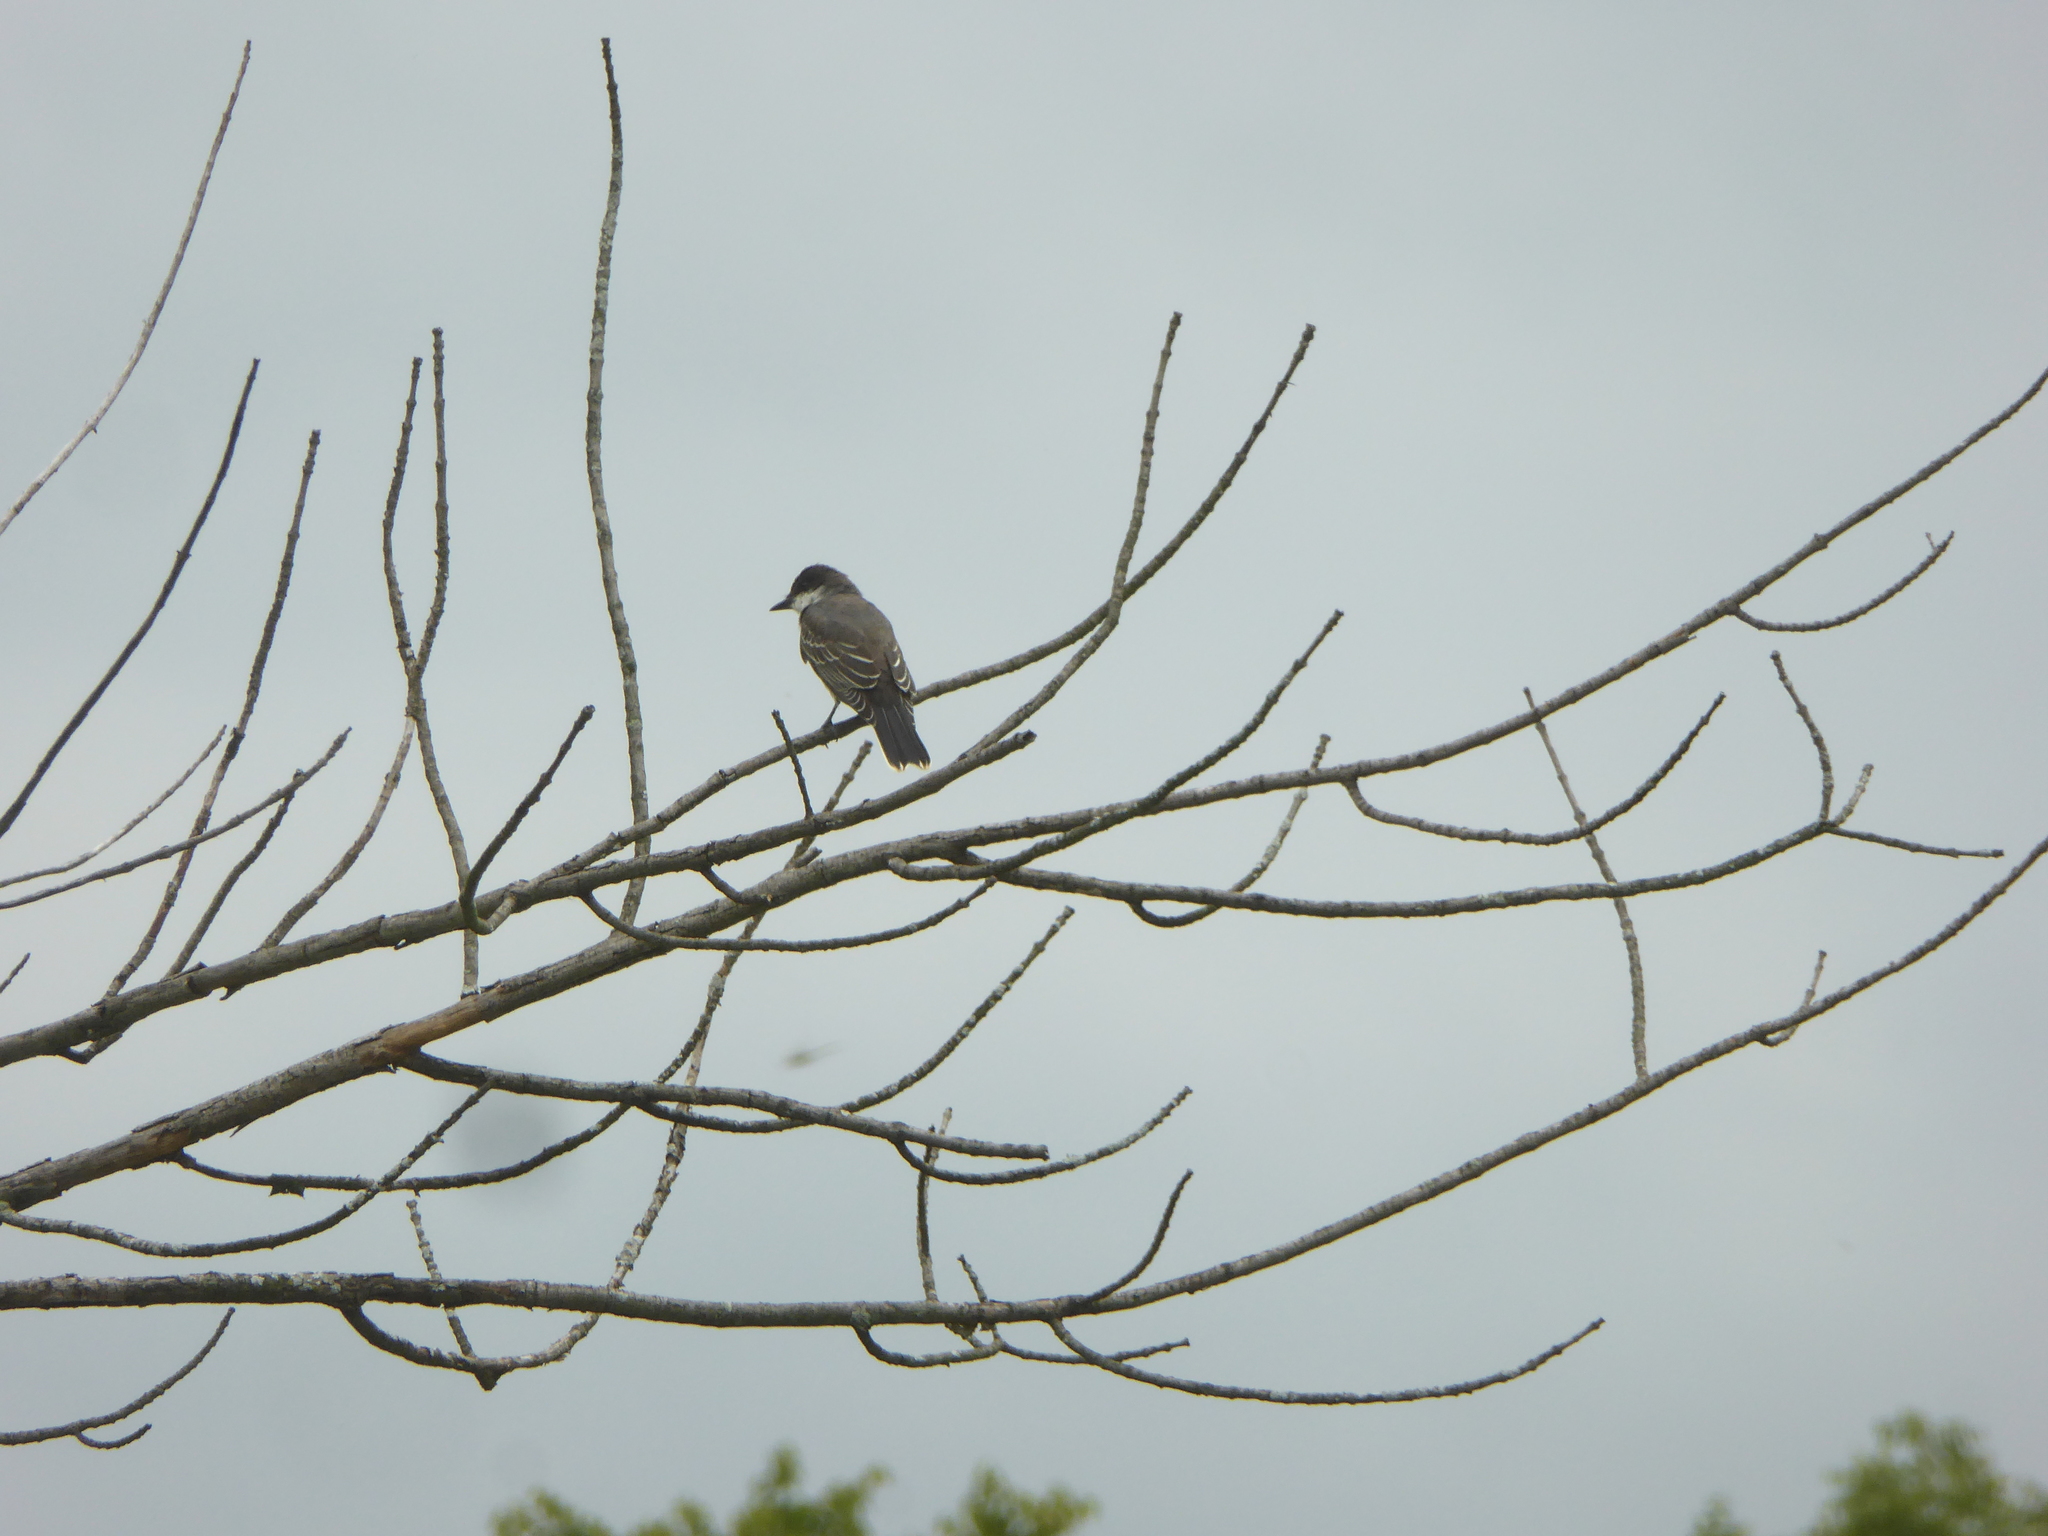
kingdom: Animalia
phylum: Chordata
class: Aves
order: Passeriformes
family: Tyrannidae
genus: Tyrannus
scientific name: Tyrannus tyrannus
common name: Eastern kingbird
